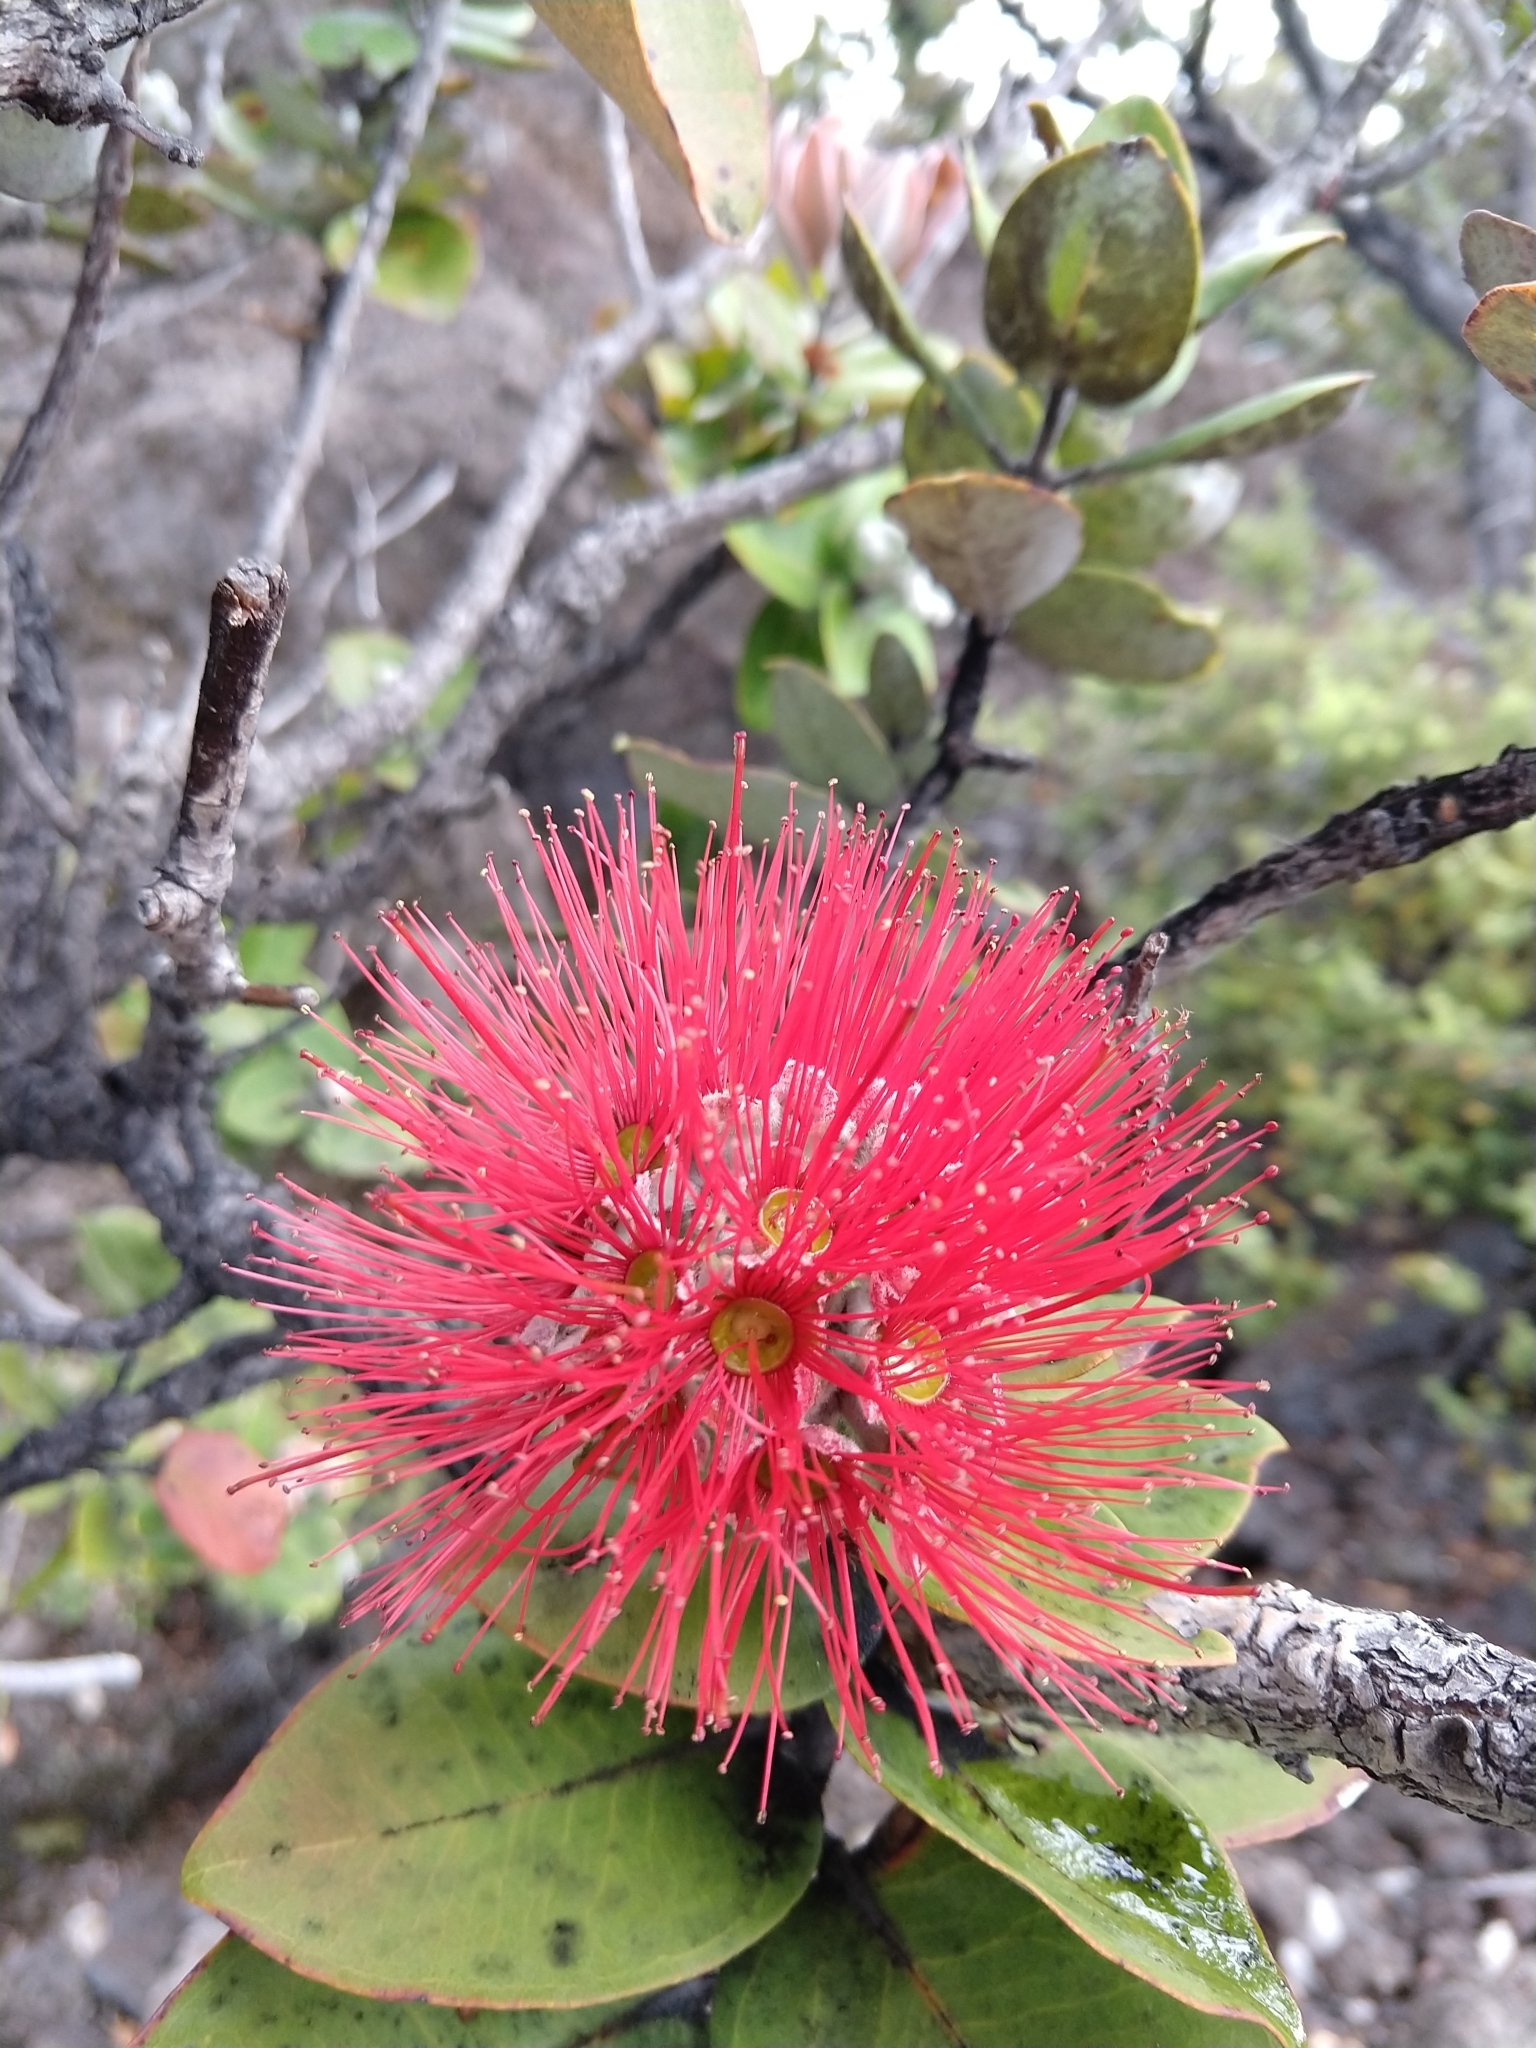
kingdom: Plantae
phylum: Tracheophyta
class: Magnoliopsida
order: Myrtales
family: Myrtaceae
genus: Metrosideros
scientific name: Metrosideros polymorpha
